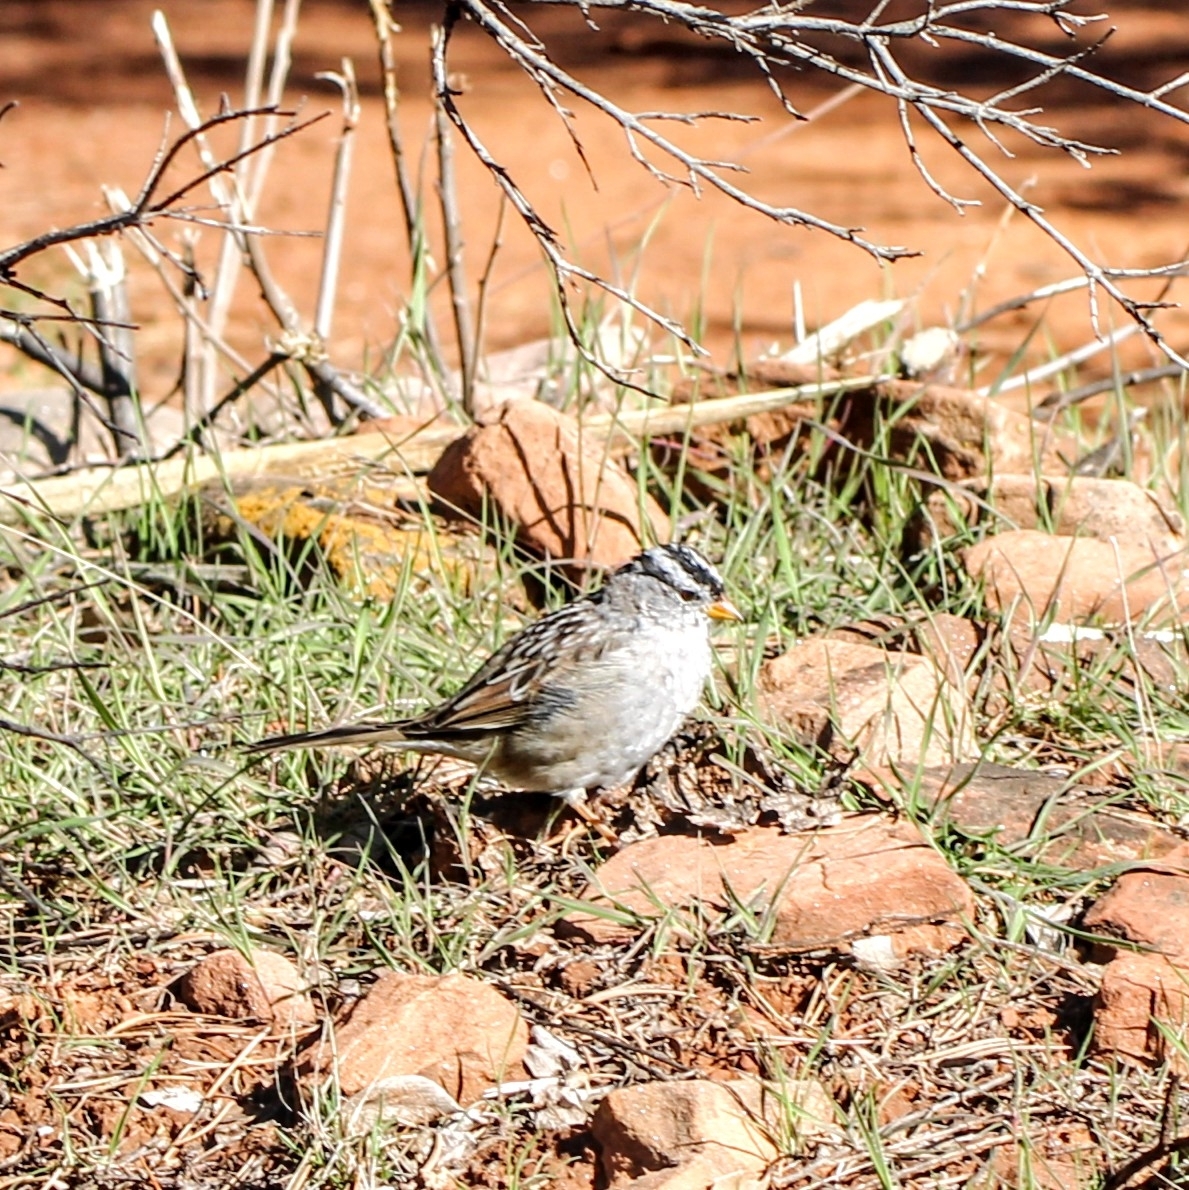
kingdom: Animalia
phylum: Chordata
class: Aves
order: Passeriformes
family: Passerellidae
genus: Zonotrichia
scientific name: Zonotrichia leucophrys
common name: White-crowned sparrow
